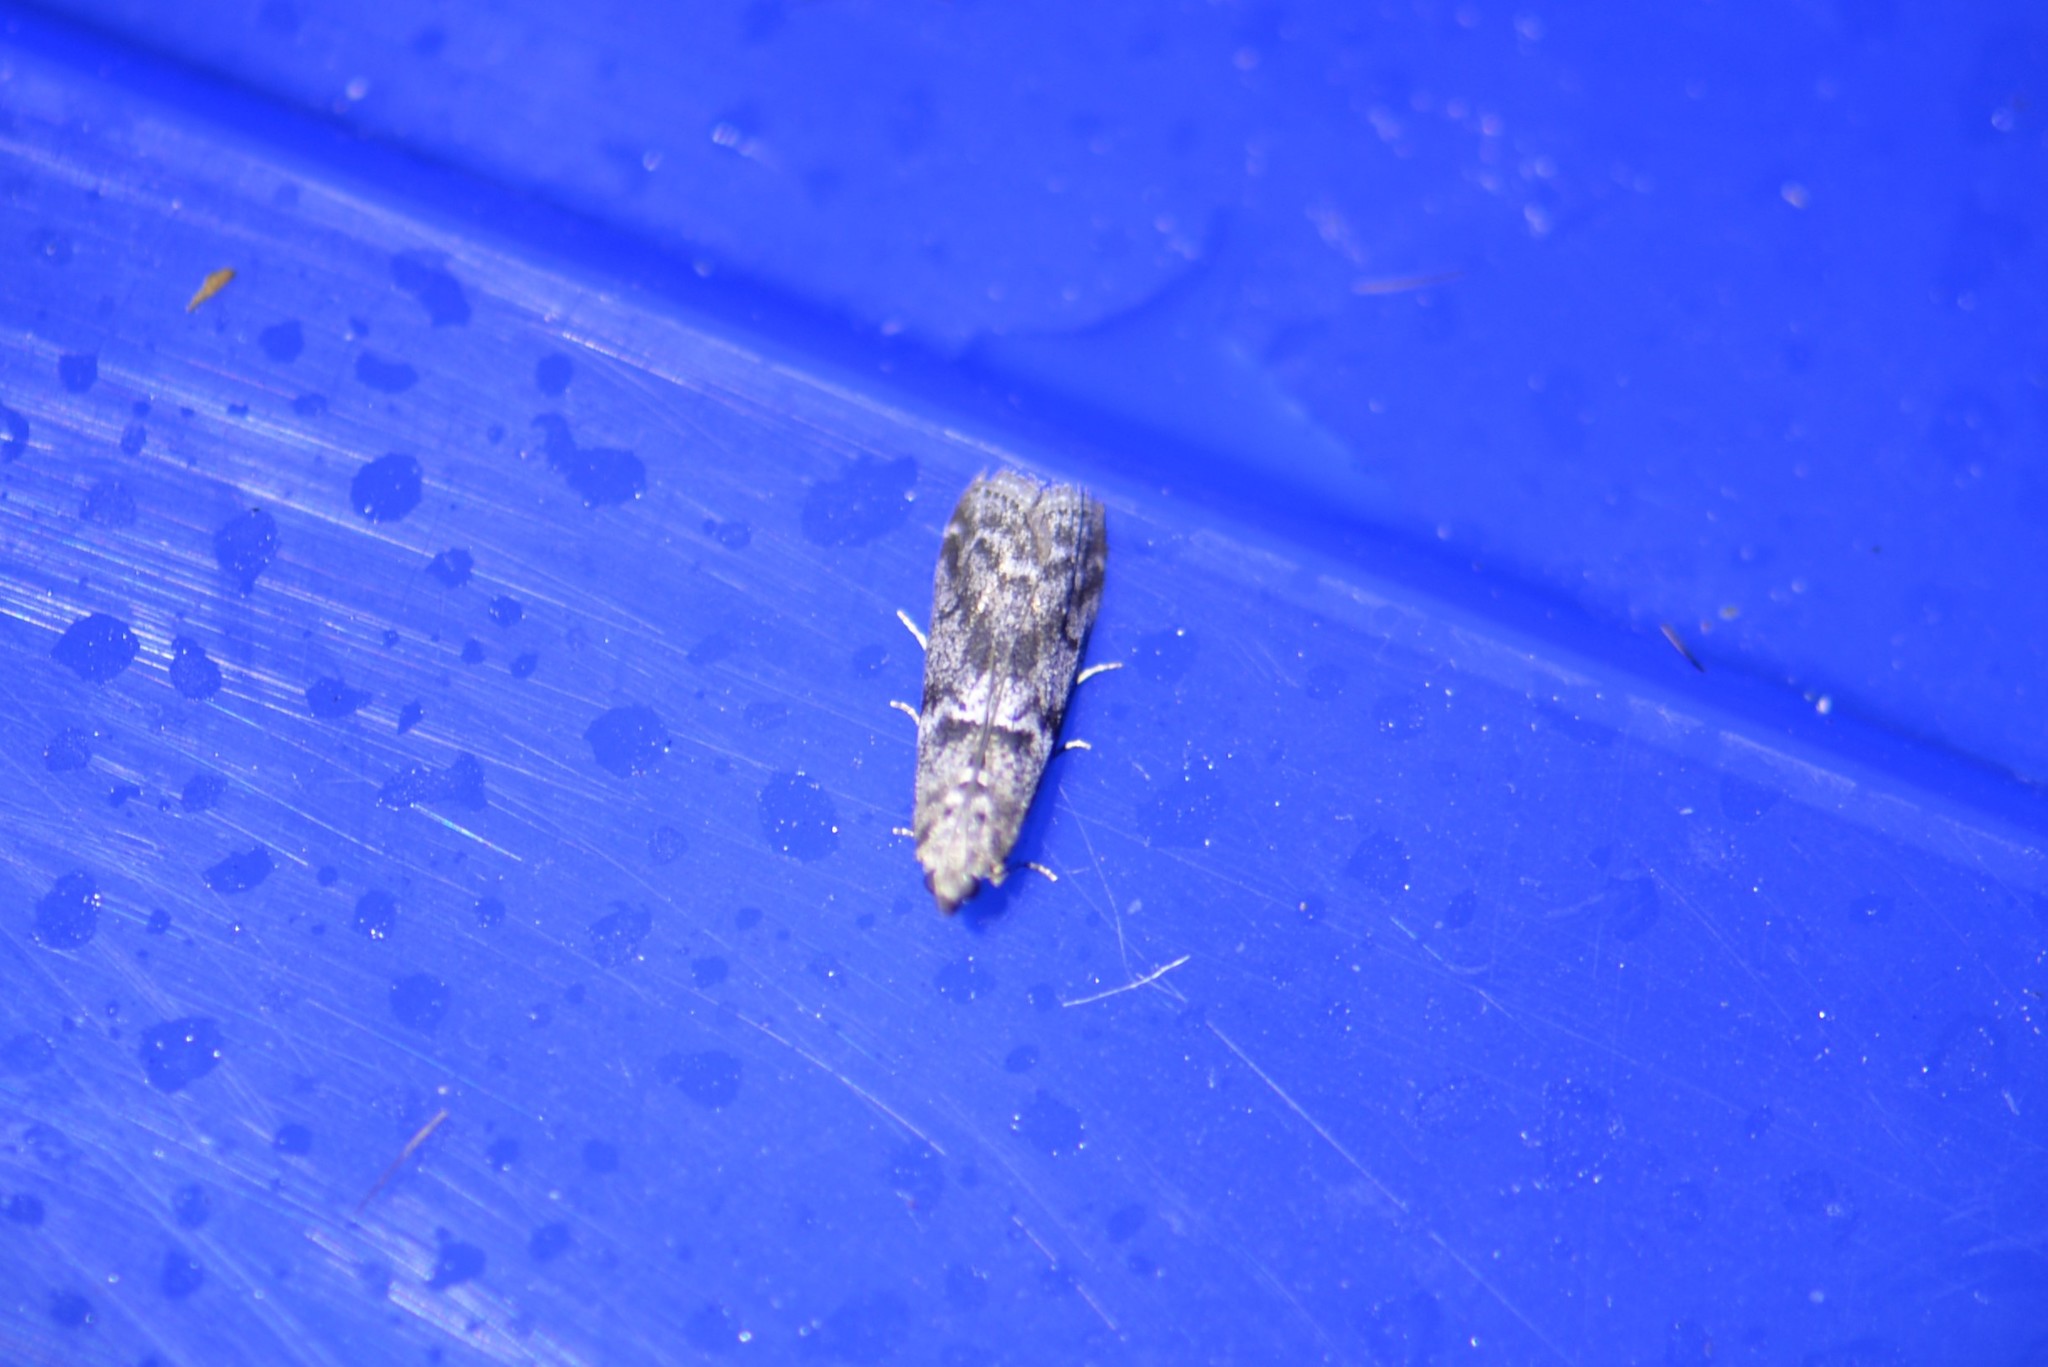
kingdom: Animalia
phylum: Arthropoda
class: Insecta
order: Lepidoptera
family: Pyralidae
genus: Pyla
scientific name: Pyla aenigmatica
